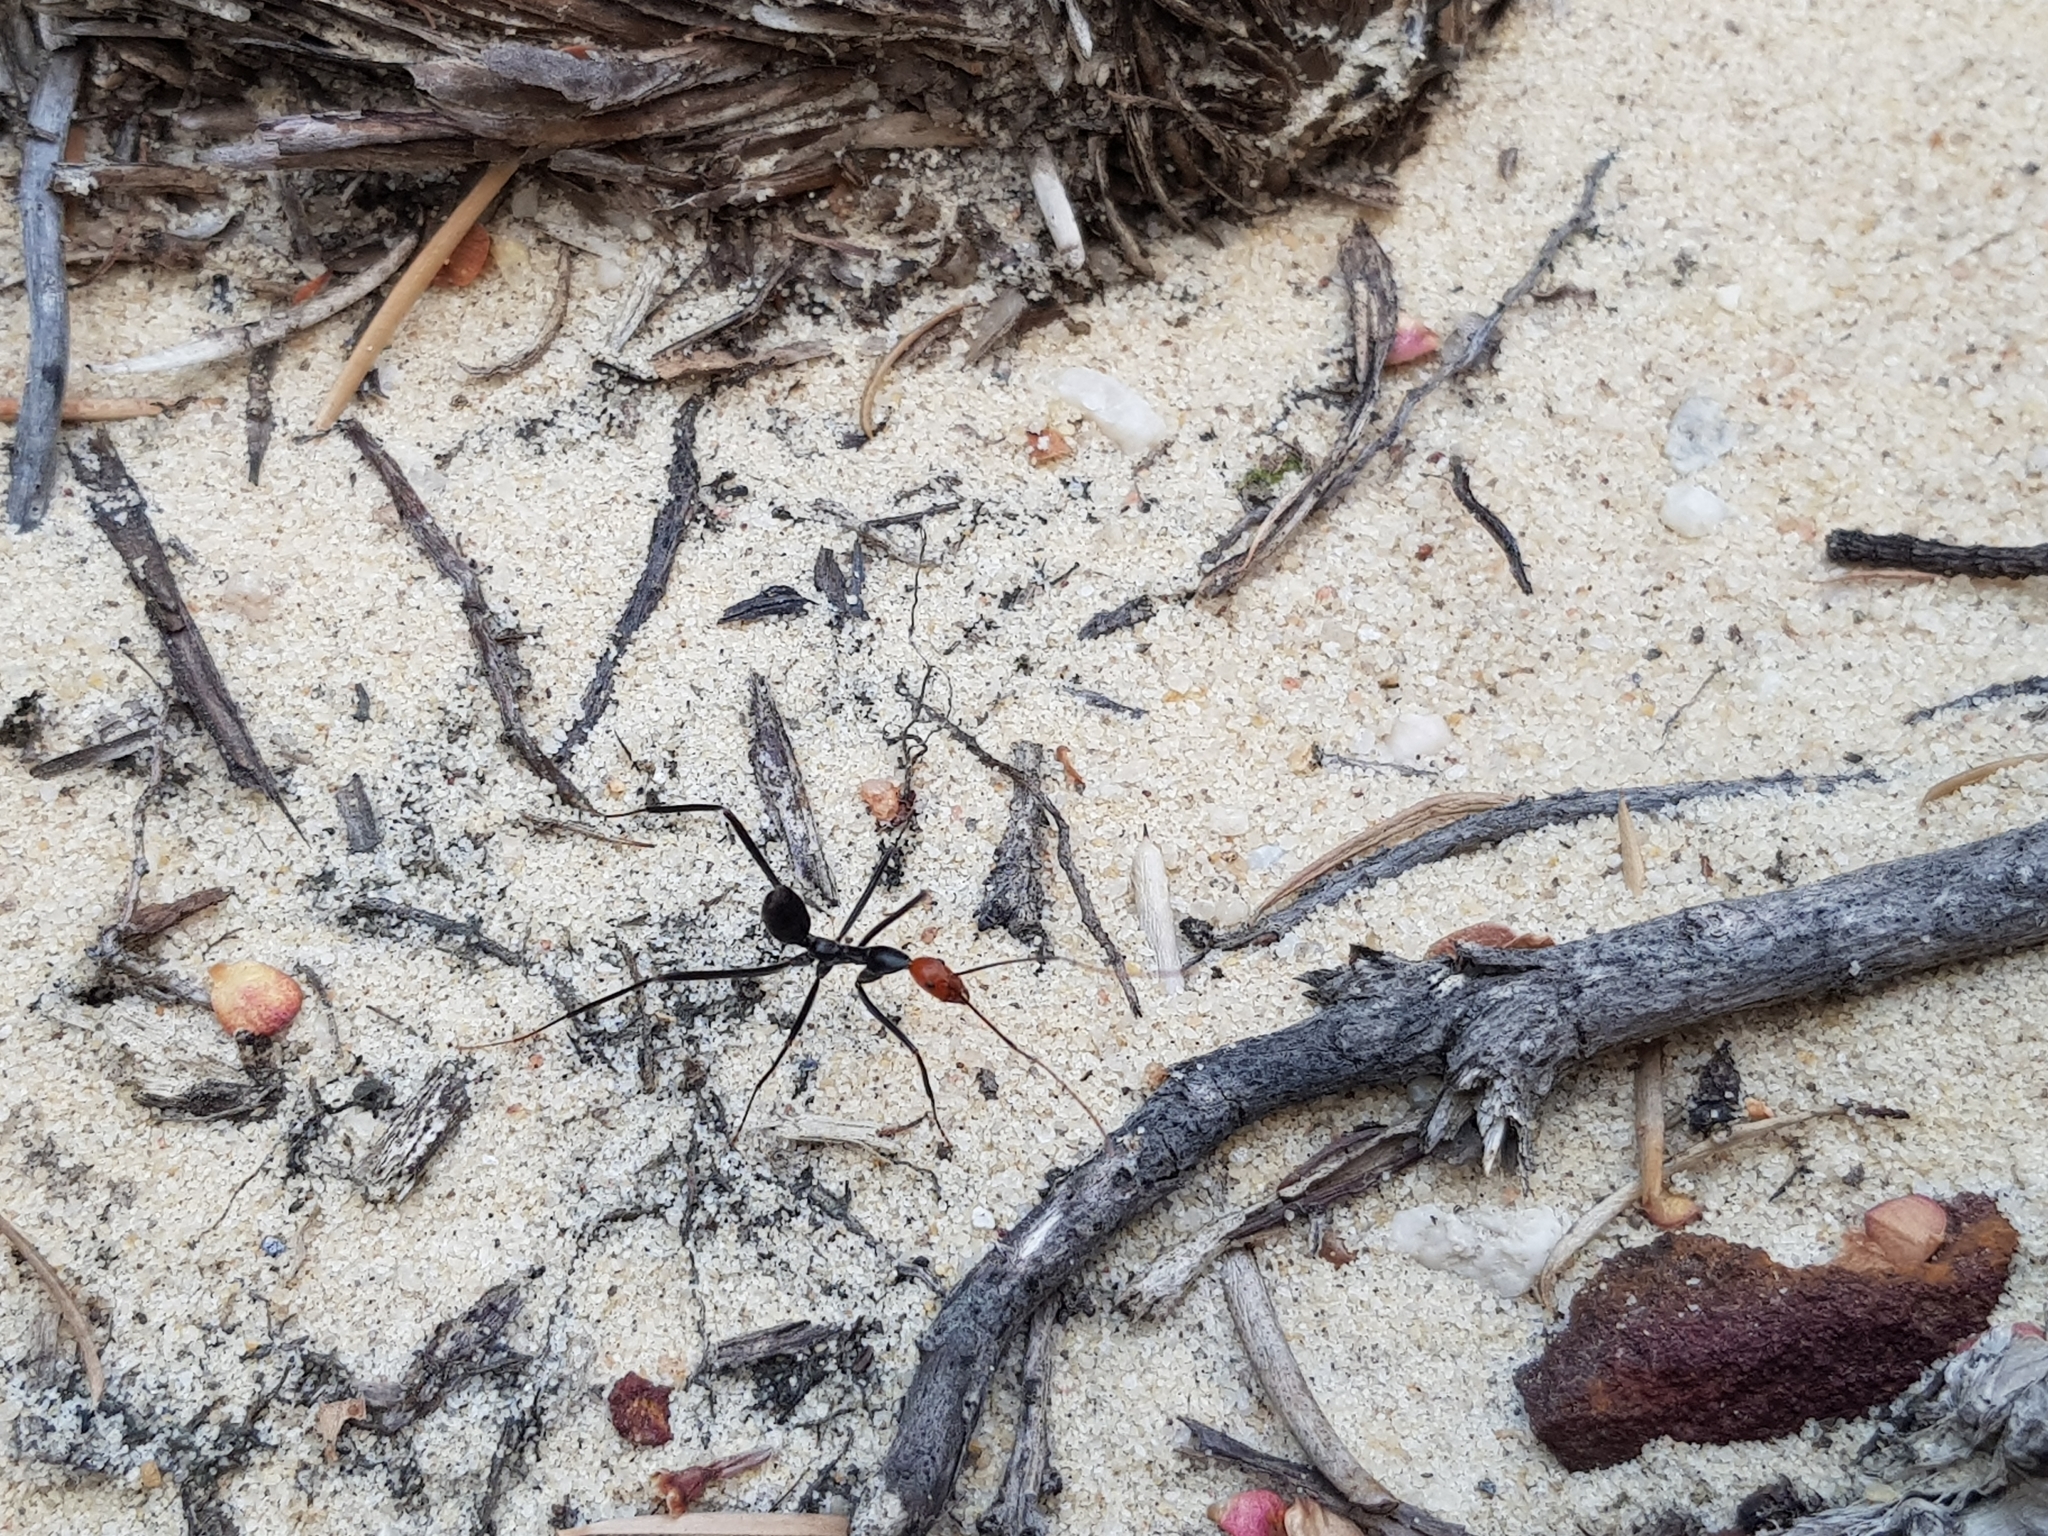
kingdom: Animalia
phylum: Arthropoda
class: Insecta
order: Hymenoptera
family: Formicidae
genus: Leptomyrmex
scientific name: Leptomyrmex erythrocephalus
